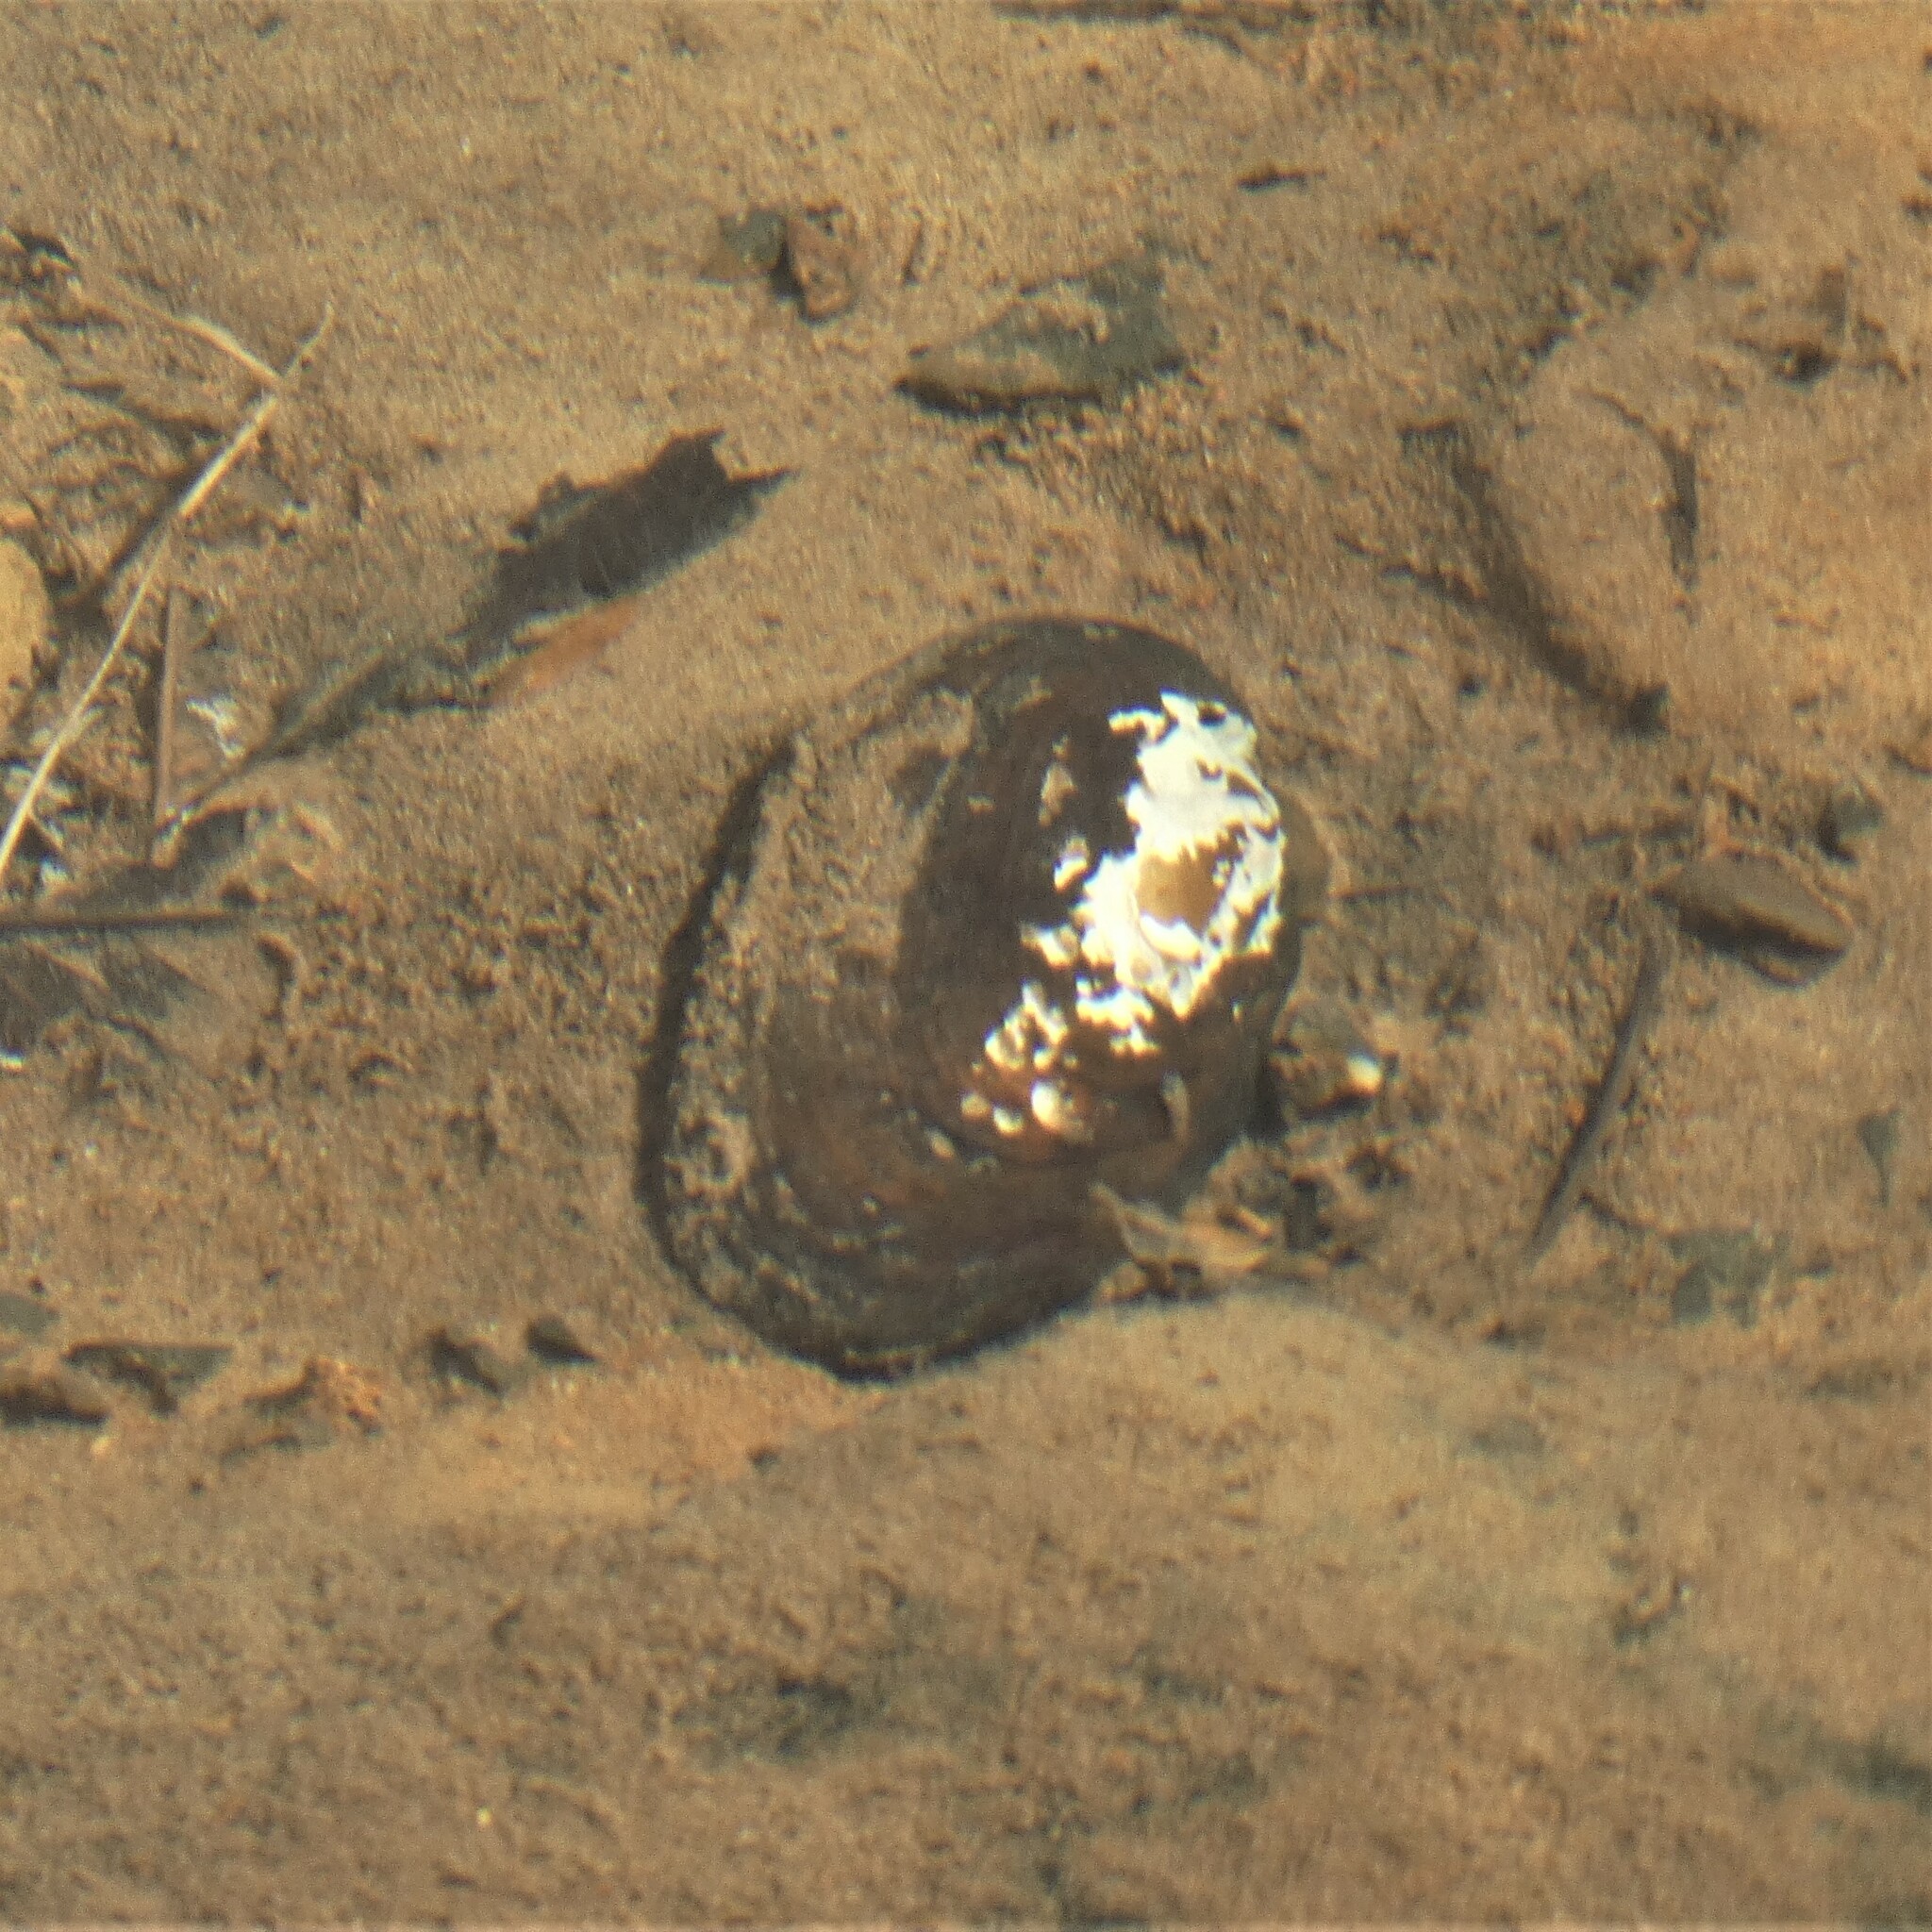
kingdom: Animalia
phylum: Mollusca
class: Bivalvia
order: Unionida
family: Unionidae
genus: Elliptio
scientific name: Elliptio complanata
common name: Eastern elliptio
